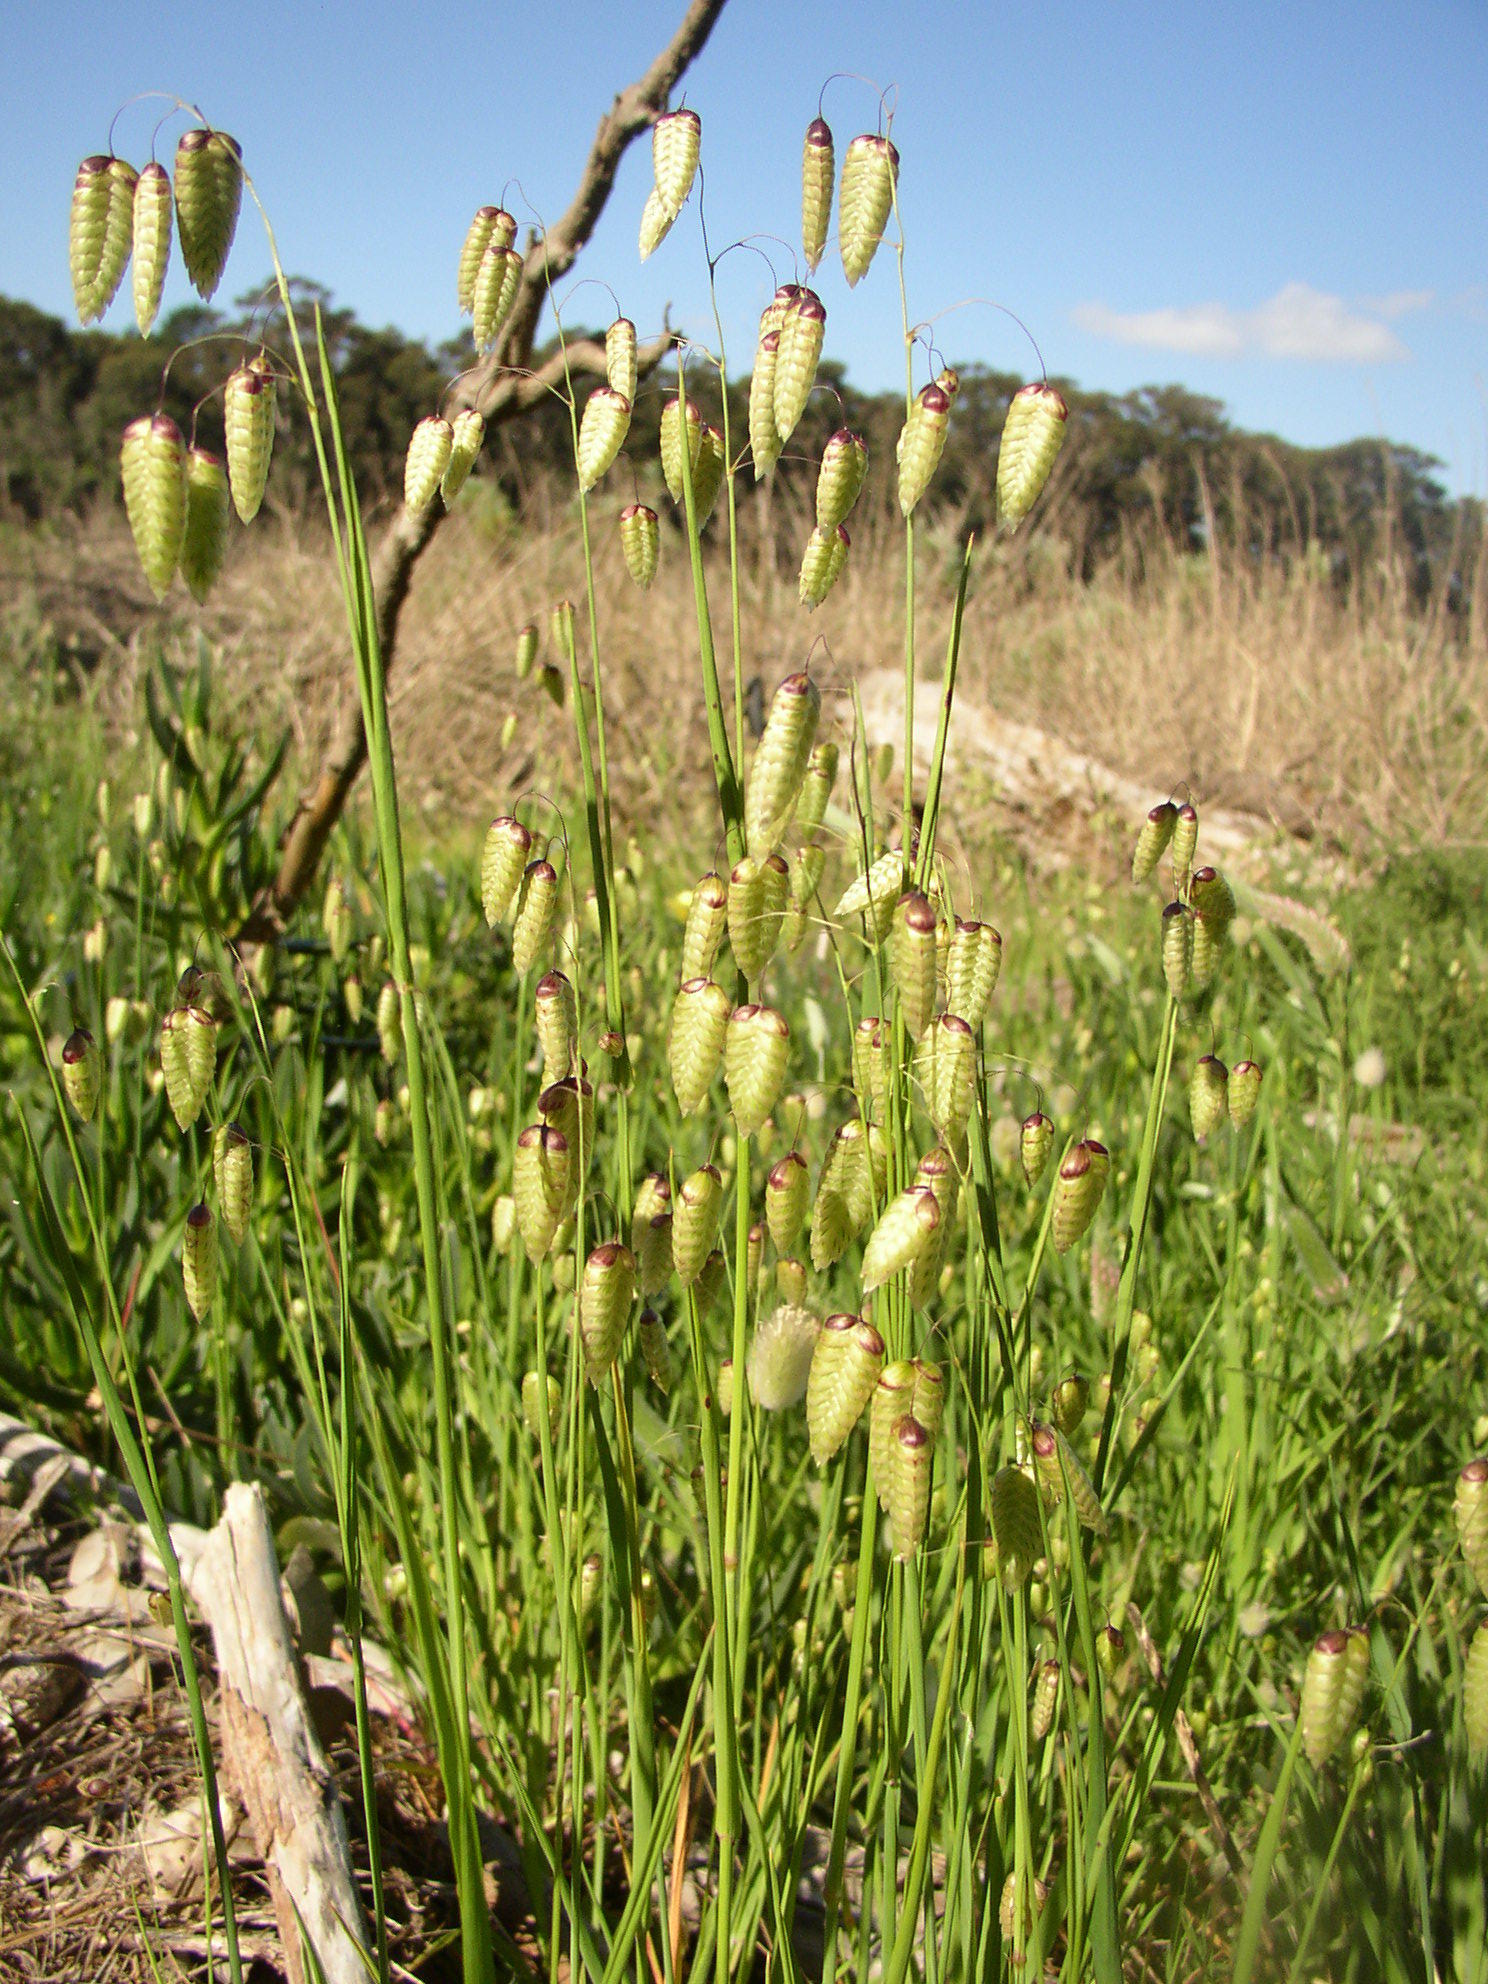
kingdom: Plantae
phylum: Tracheophyta
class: Liliopsida
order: Poales
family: Poaceae
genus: Briza
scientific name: Briza maxima
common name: Big quakinggrass
